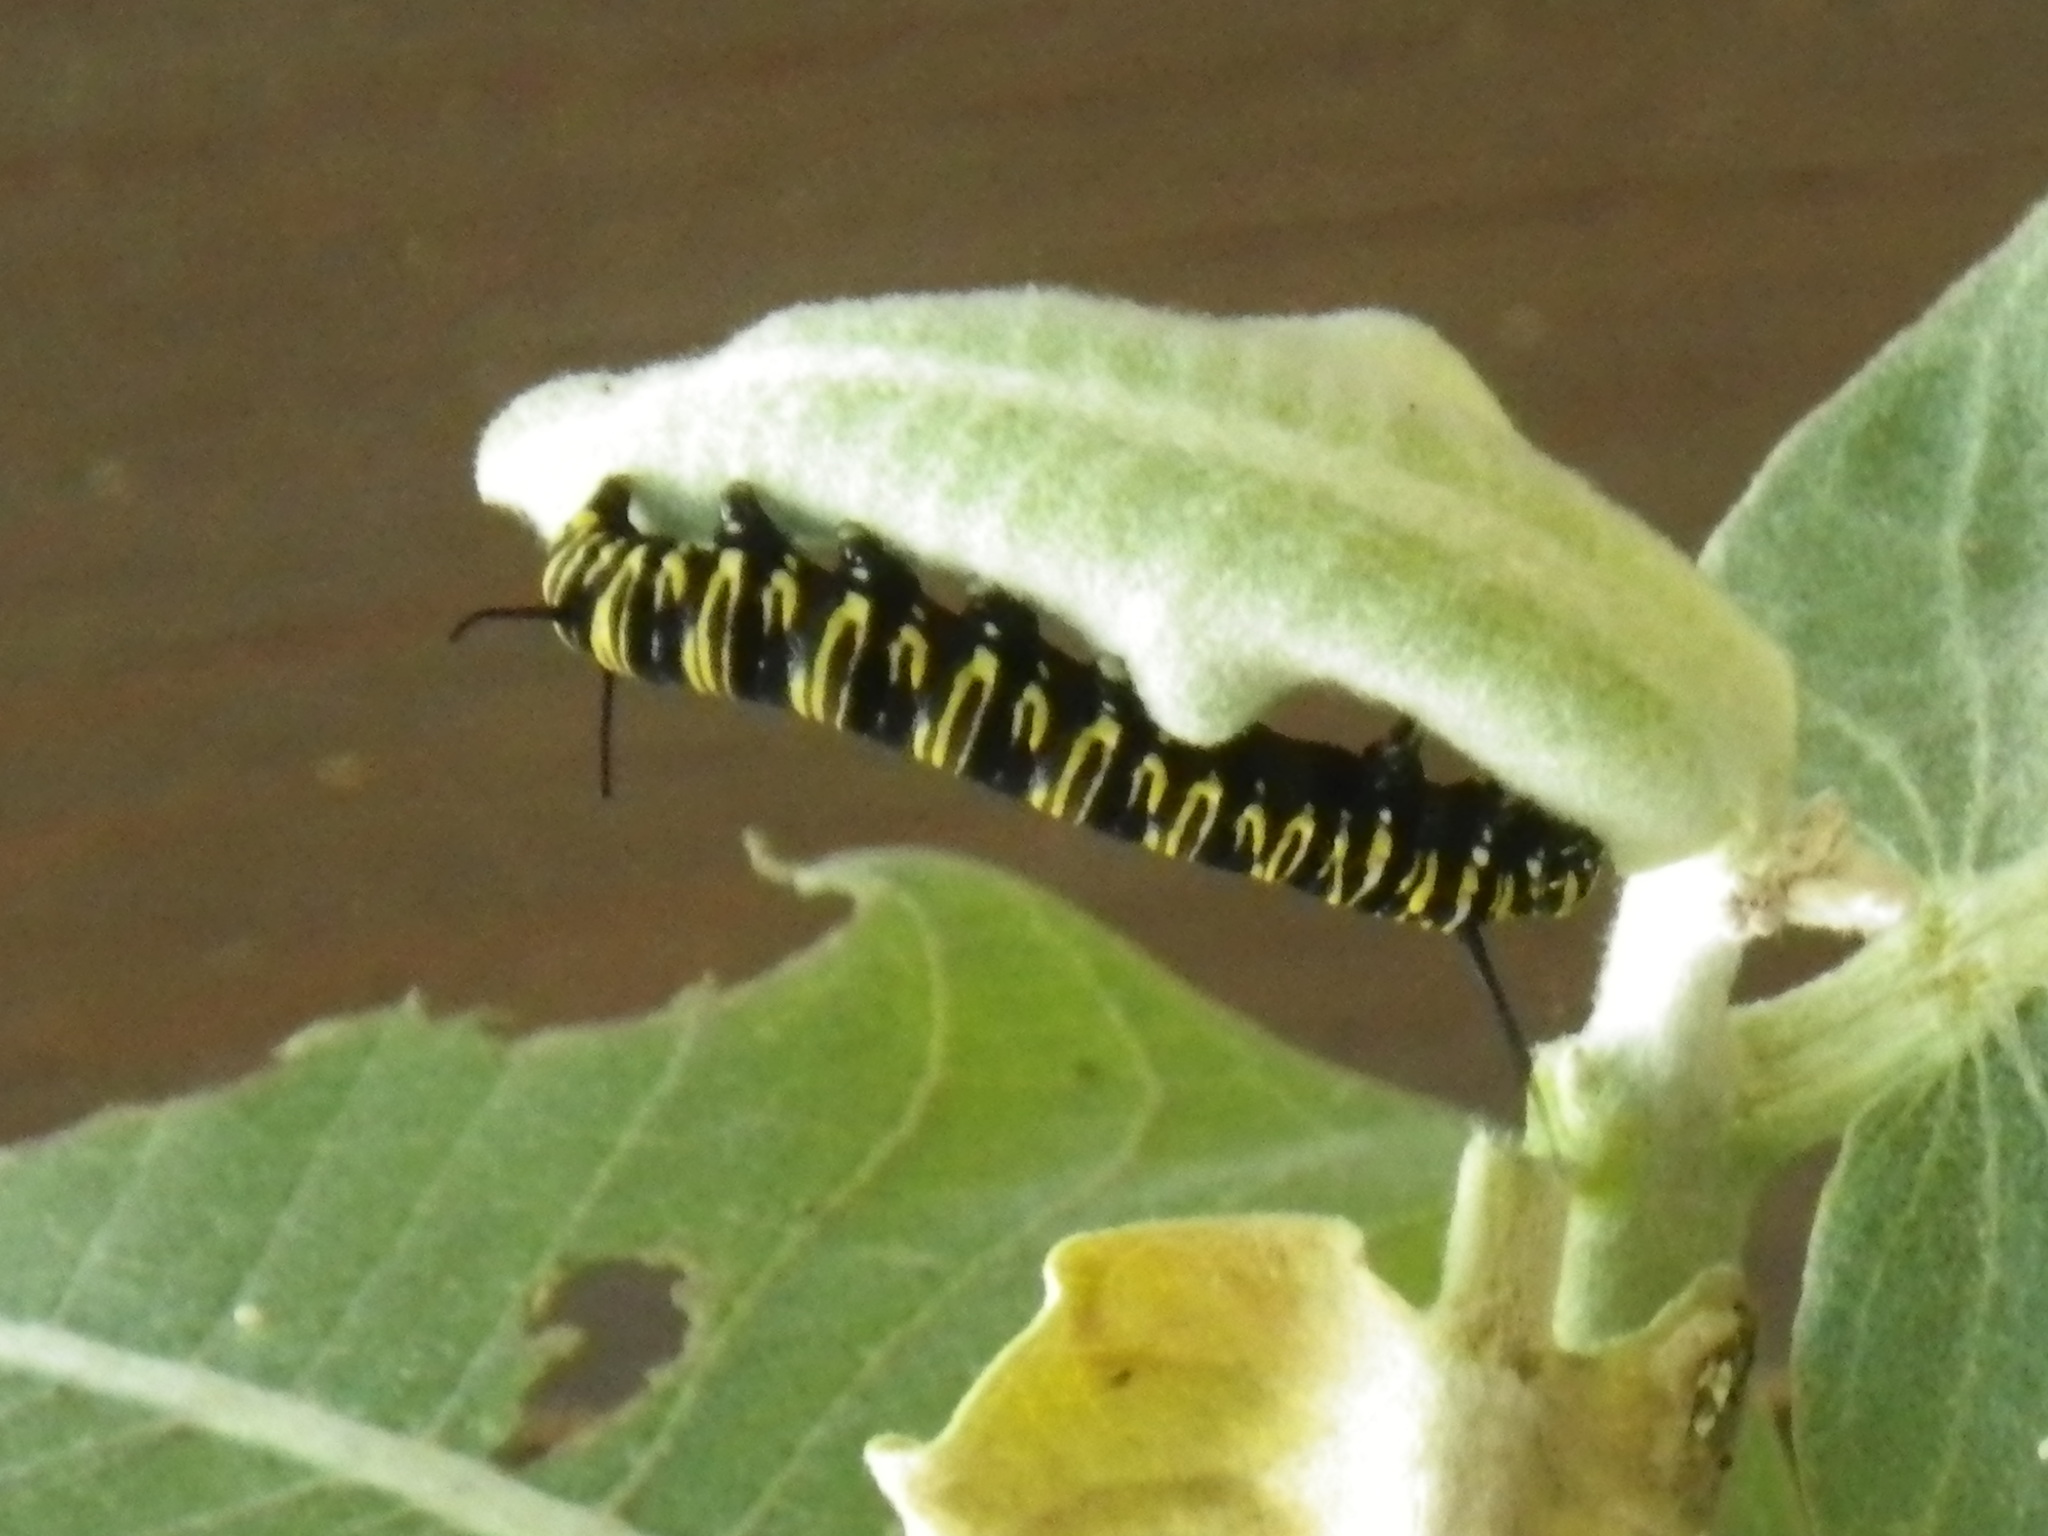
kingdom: Animalia
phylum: Arthropoda
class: Insecta
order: Lepidoptera
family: Nymphalidae
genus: Danaus
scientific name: Danaus plexippus
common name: Monarch
